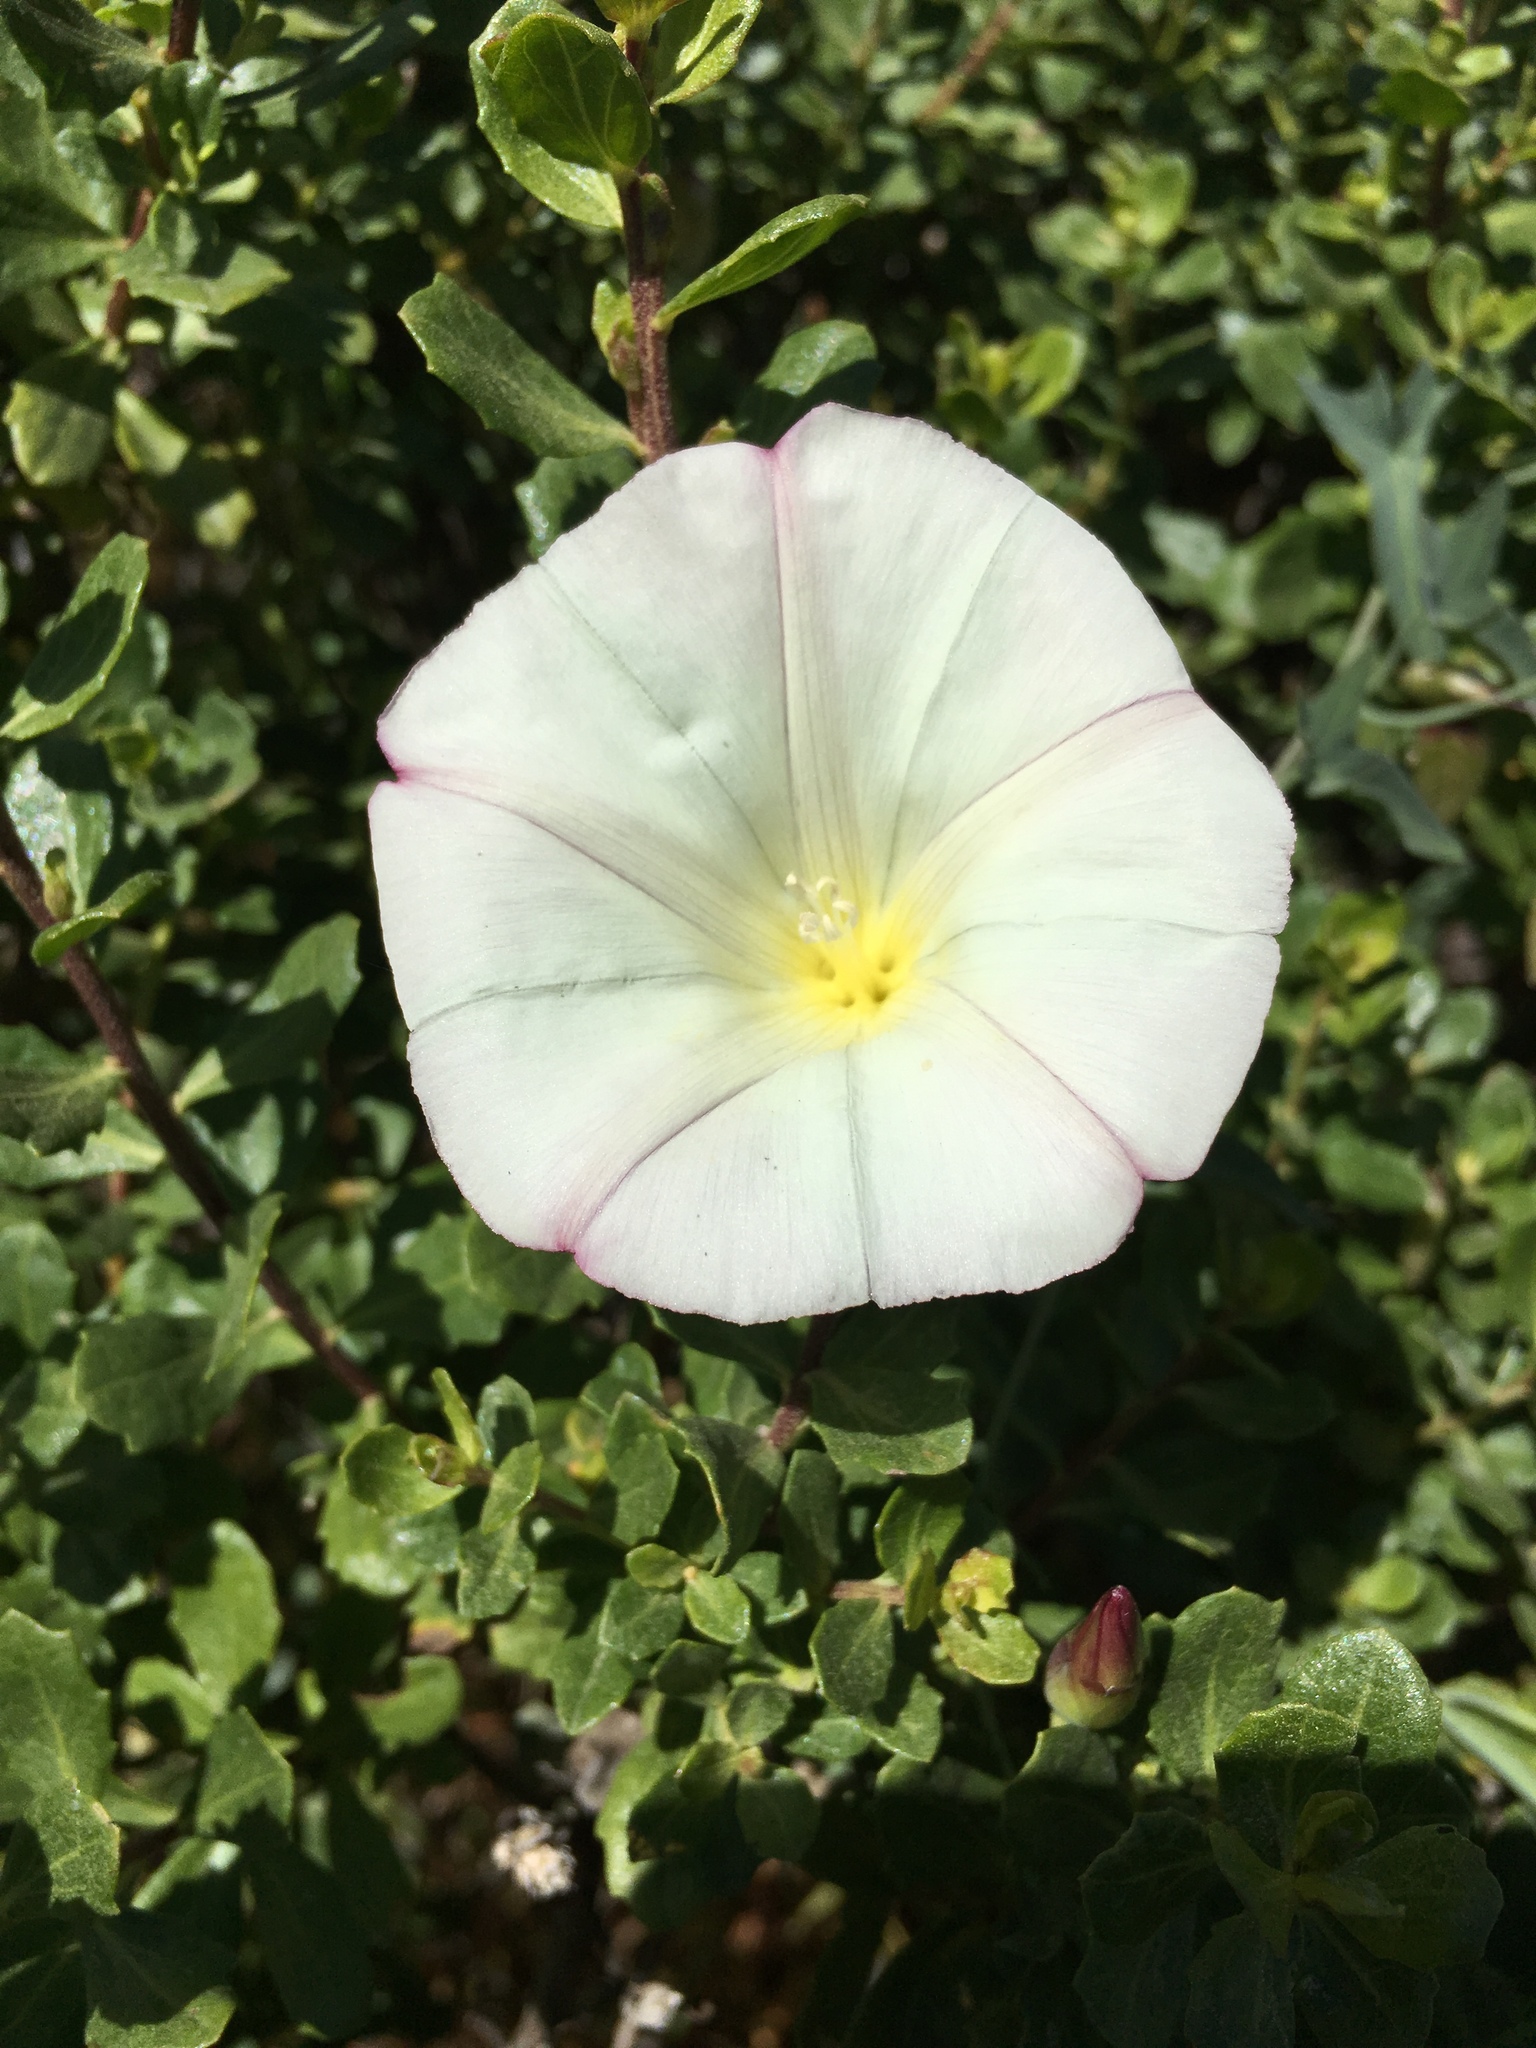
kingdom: Plantae
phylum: Tracheophyta
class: Magnoliopsida
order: Solanales
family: Convolvulaceae
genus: Calystegia
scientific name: Calystegia purpurata
